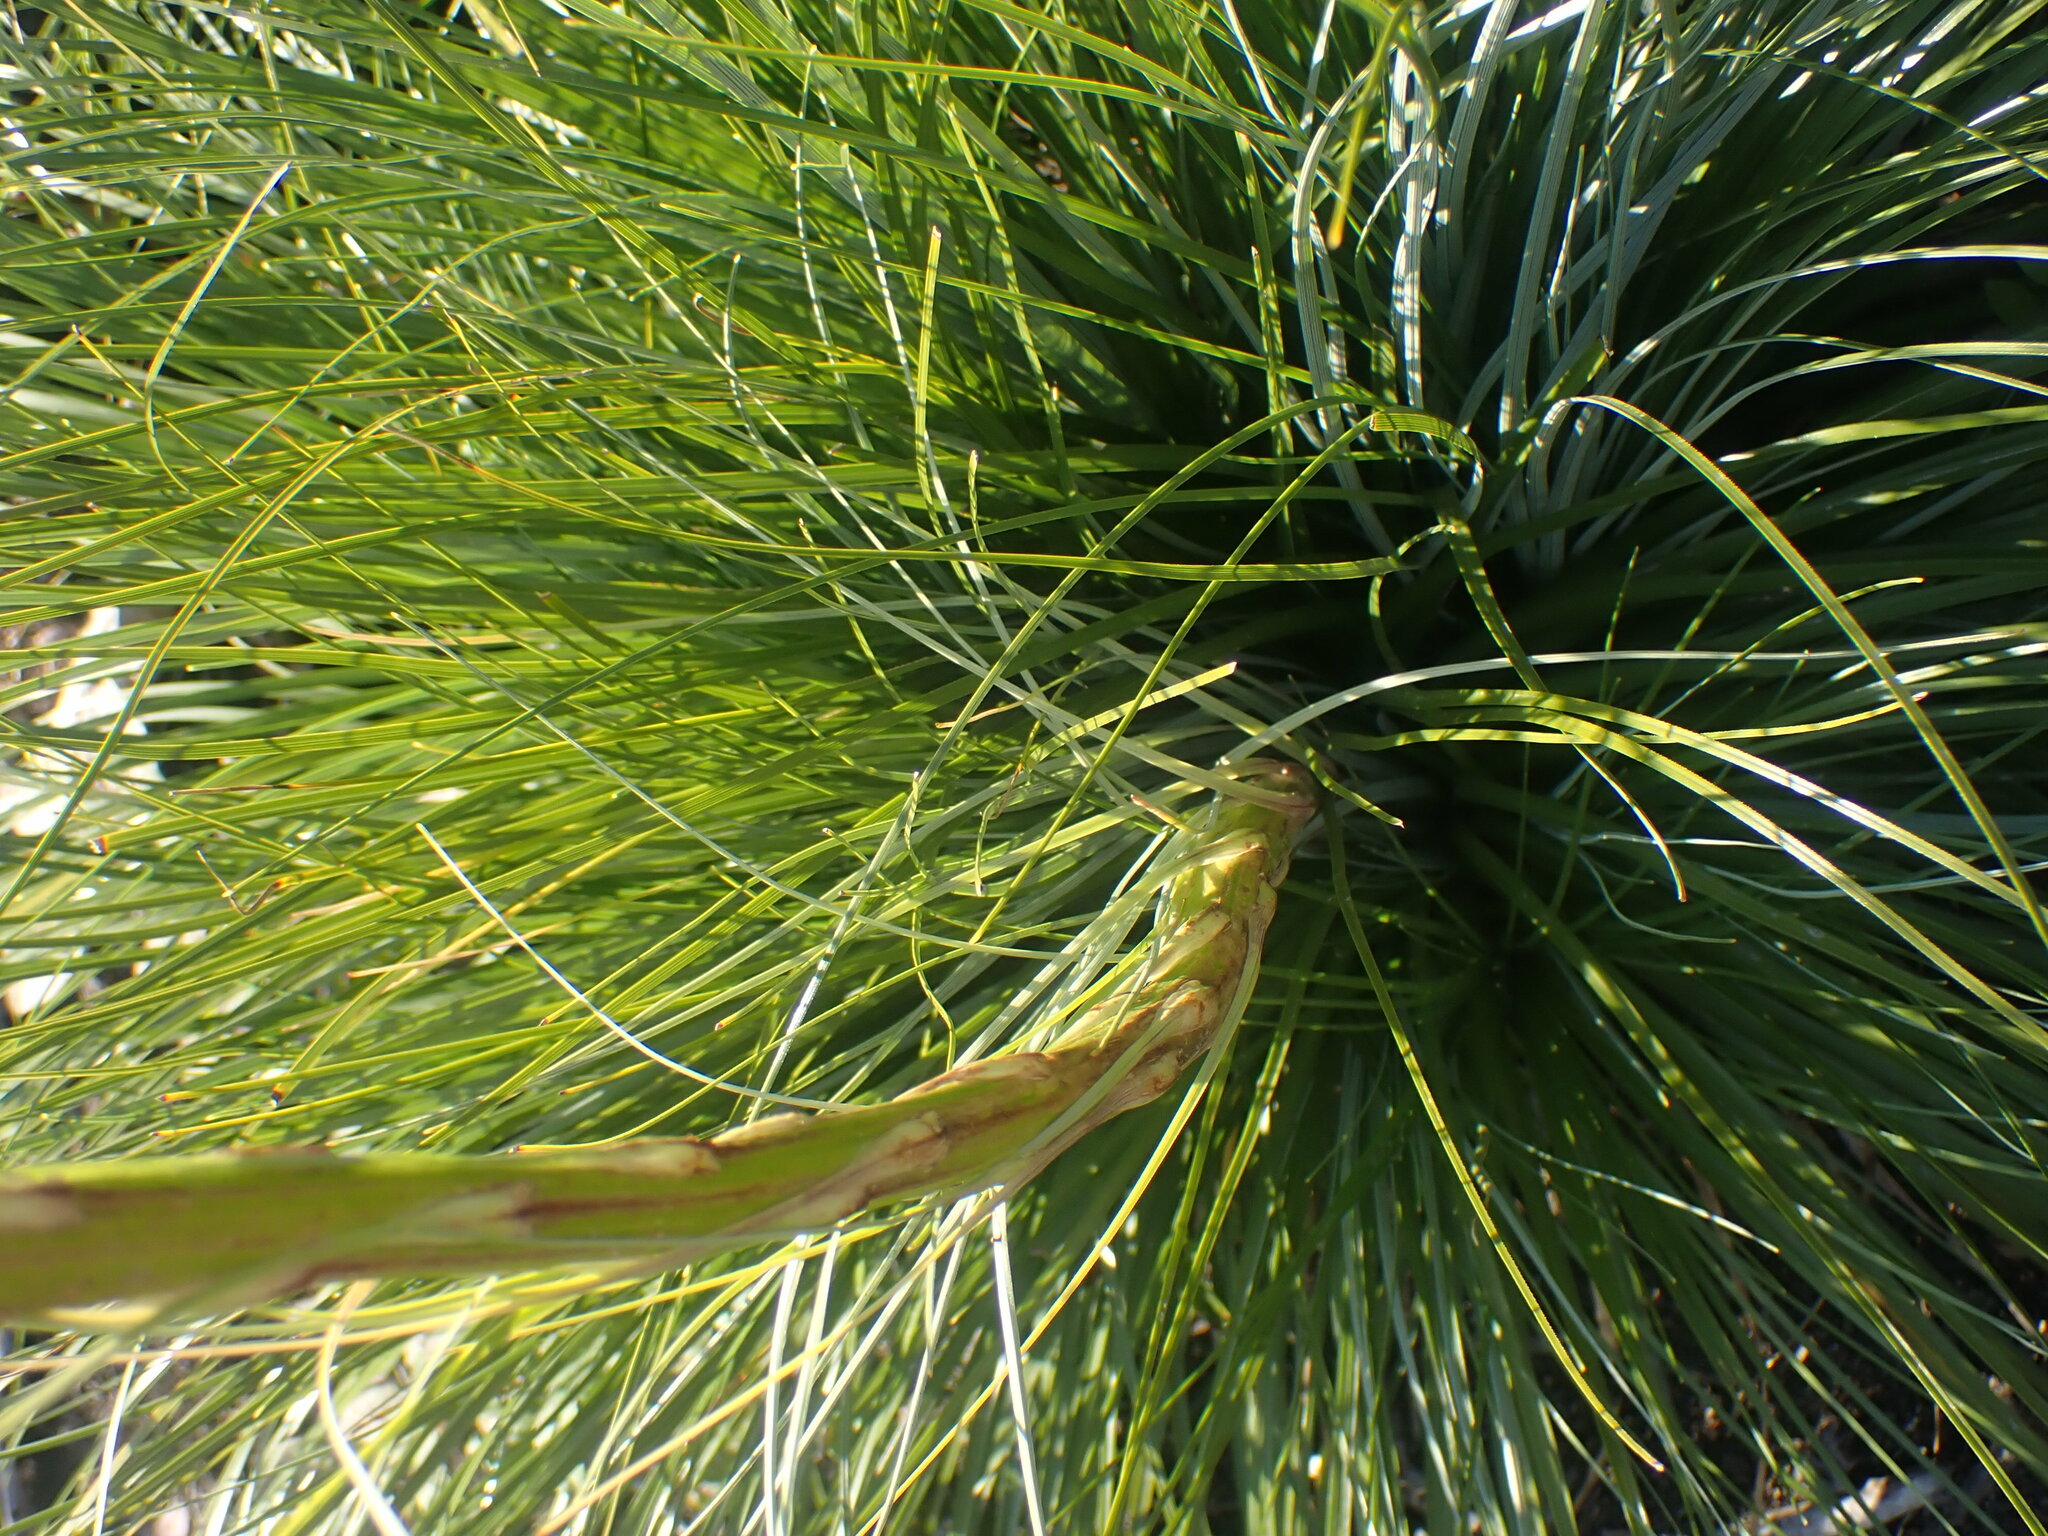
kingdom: Plantae
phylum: Tracheophyta
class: Liliopsida
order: Liliales
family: Melanthiaceae
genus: Xerophyllum
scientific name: Xerophyllum tenax
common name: Bear-grass
